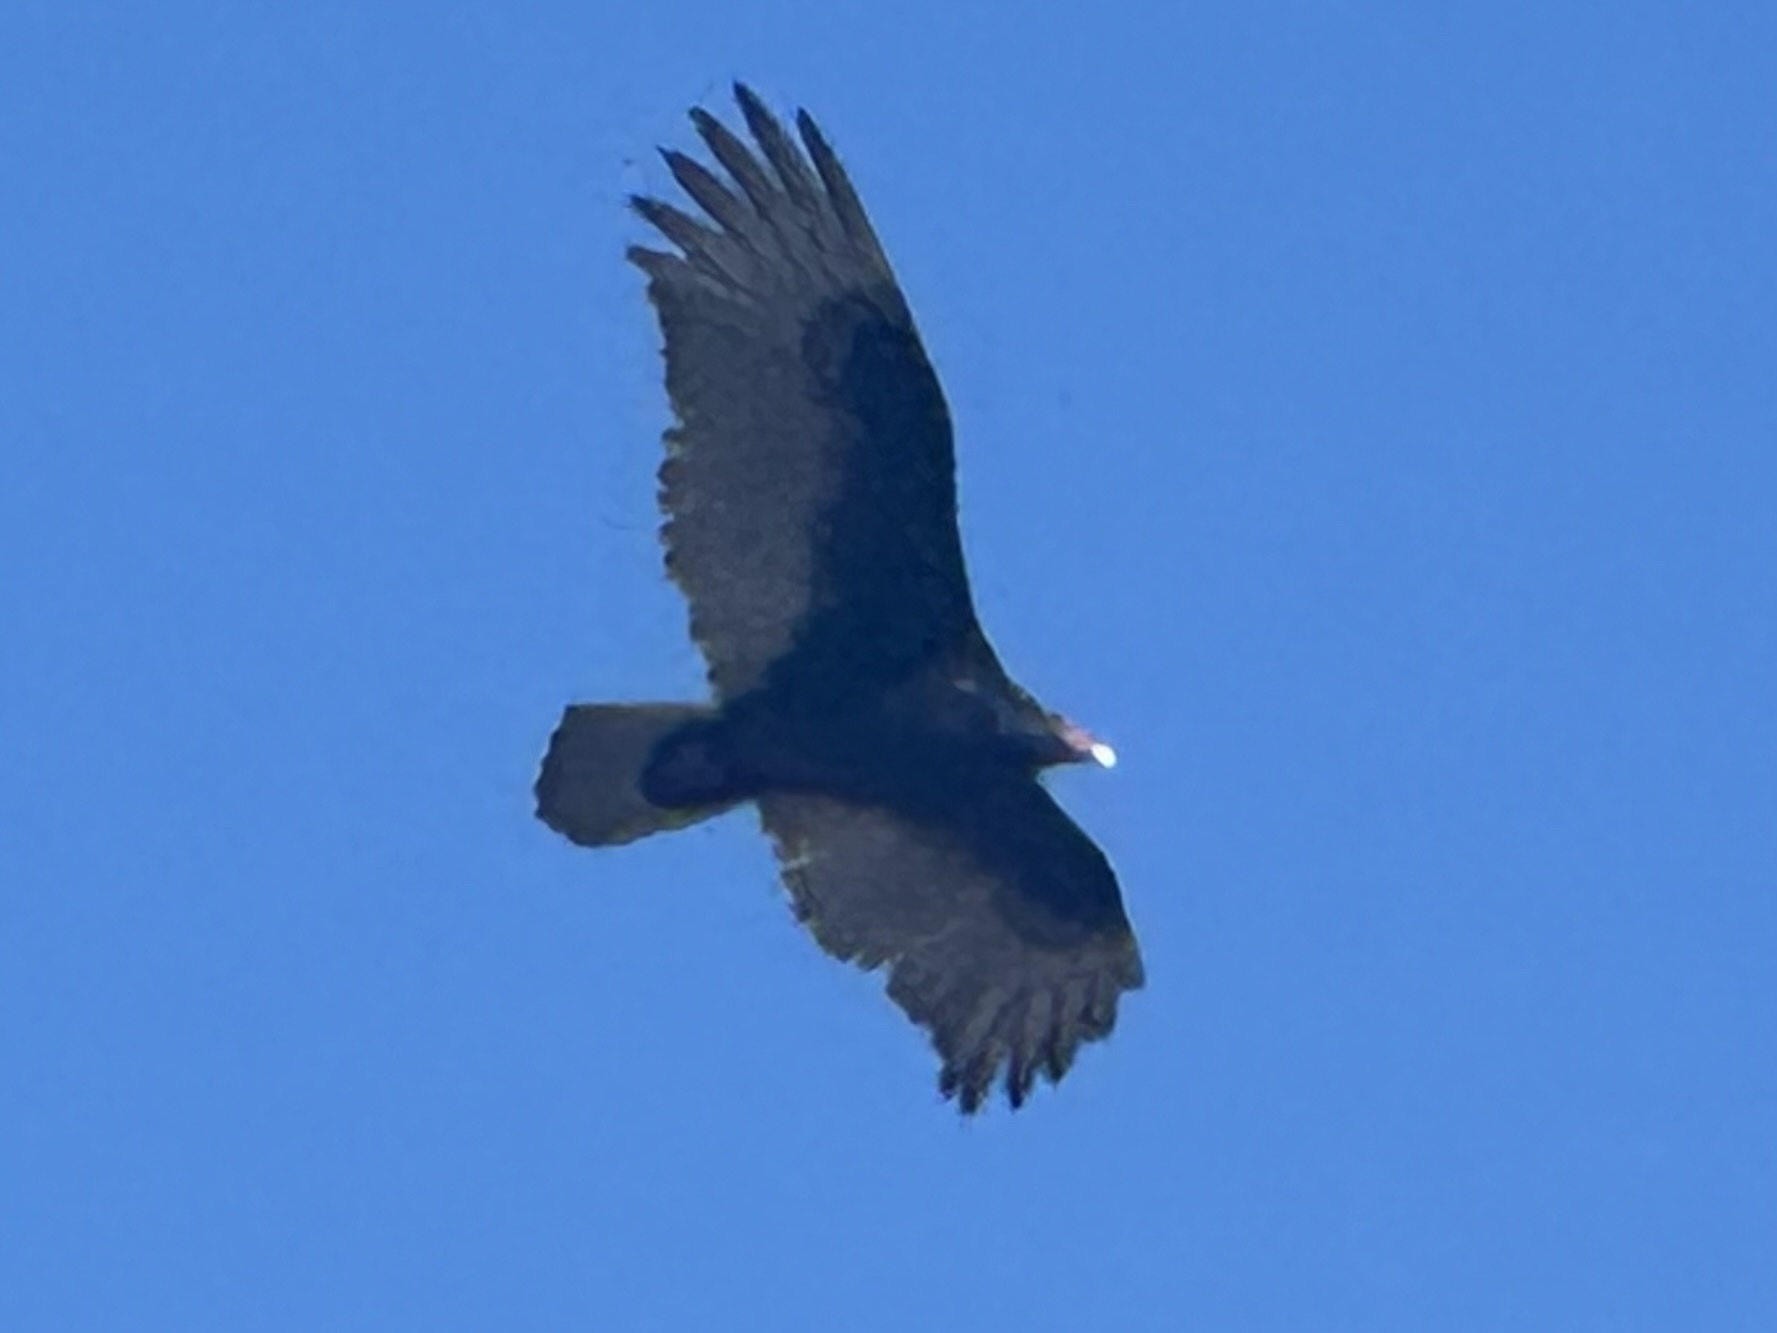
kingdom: Animalia
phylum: Chordata
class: Aves
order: Accipitriformes
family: Cathartidae
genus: Cathartes
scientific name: Cathartes aura
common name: Turkey vulture
